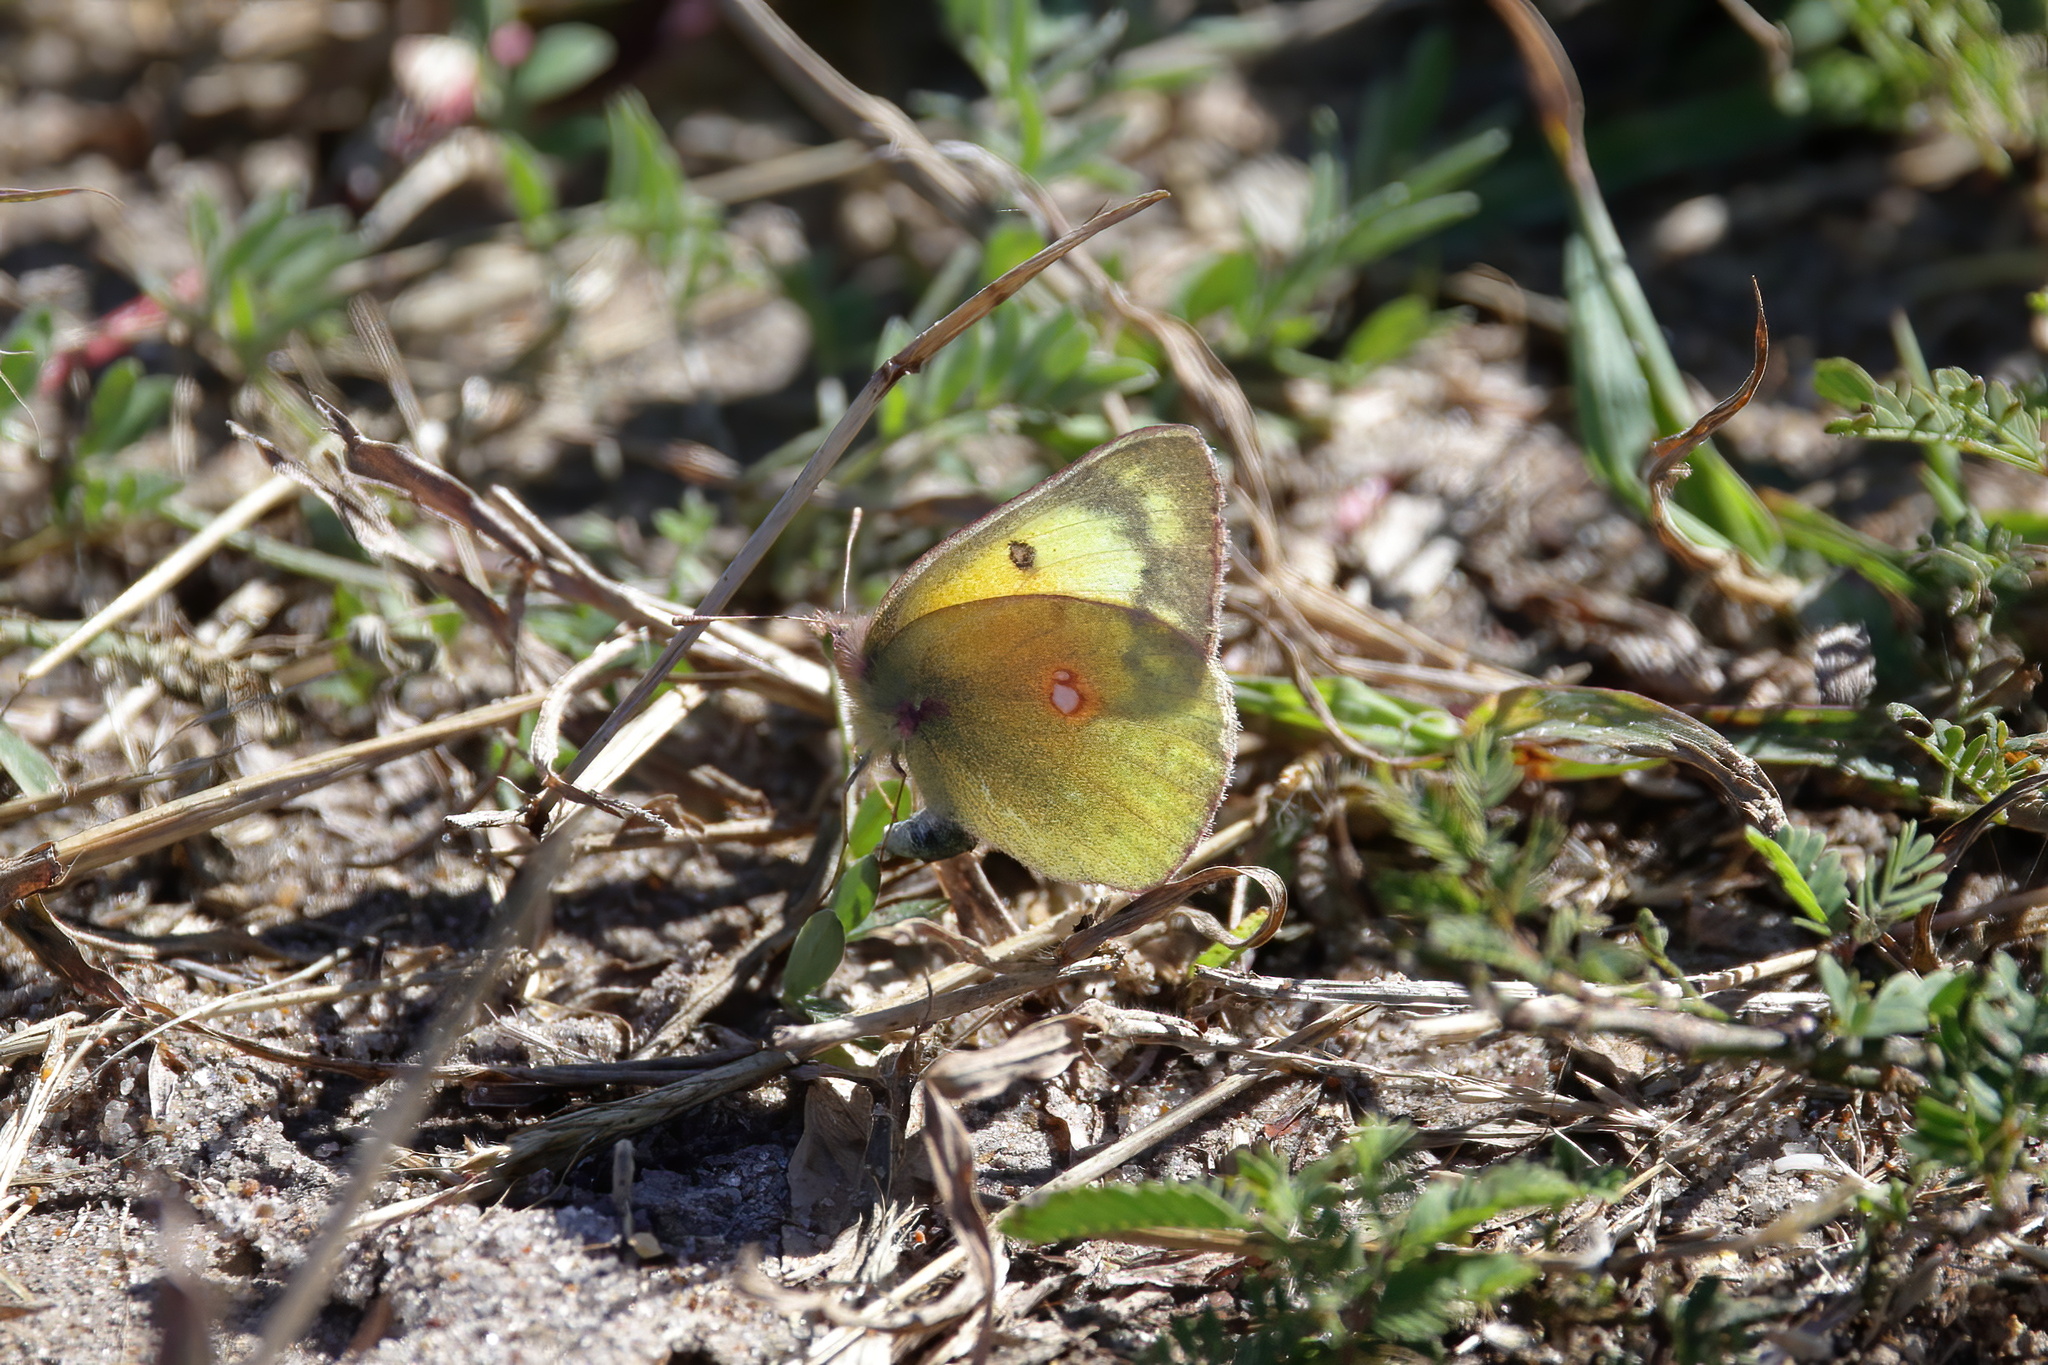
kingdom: Animalia
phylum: Arthropoda
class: Insecta
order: Lepidoptera
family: Pieridae
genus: Colias
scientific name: Colias eurytheme
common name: Alfalfa butterfly
